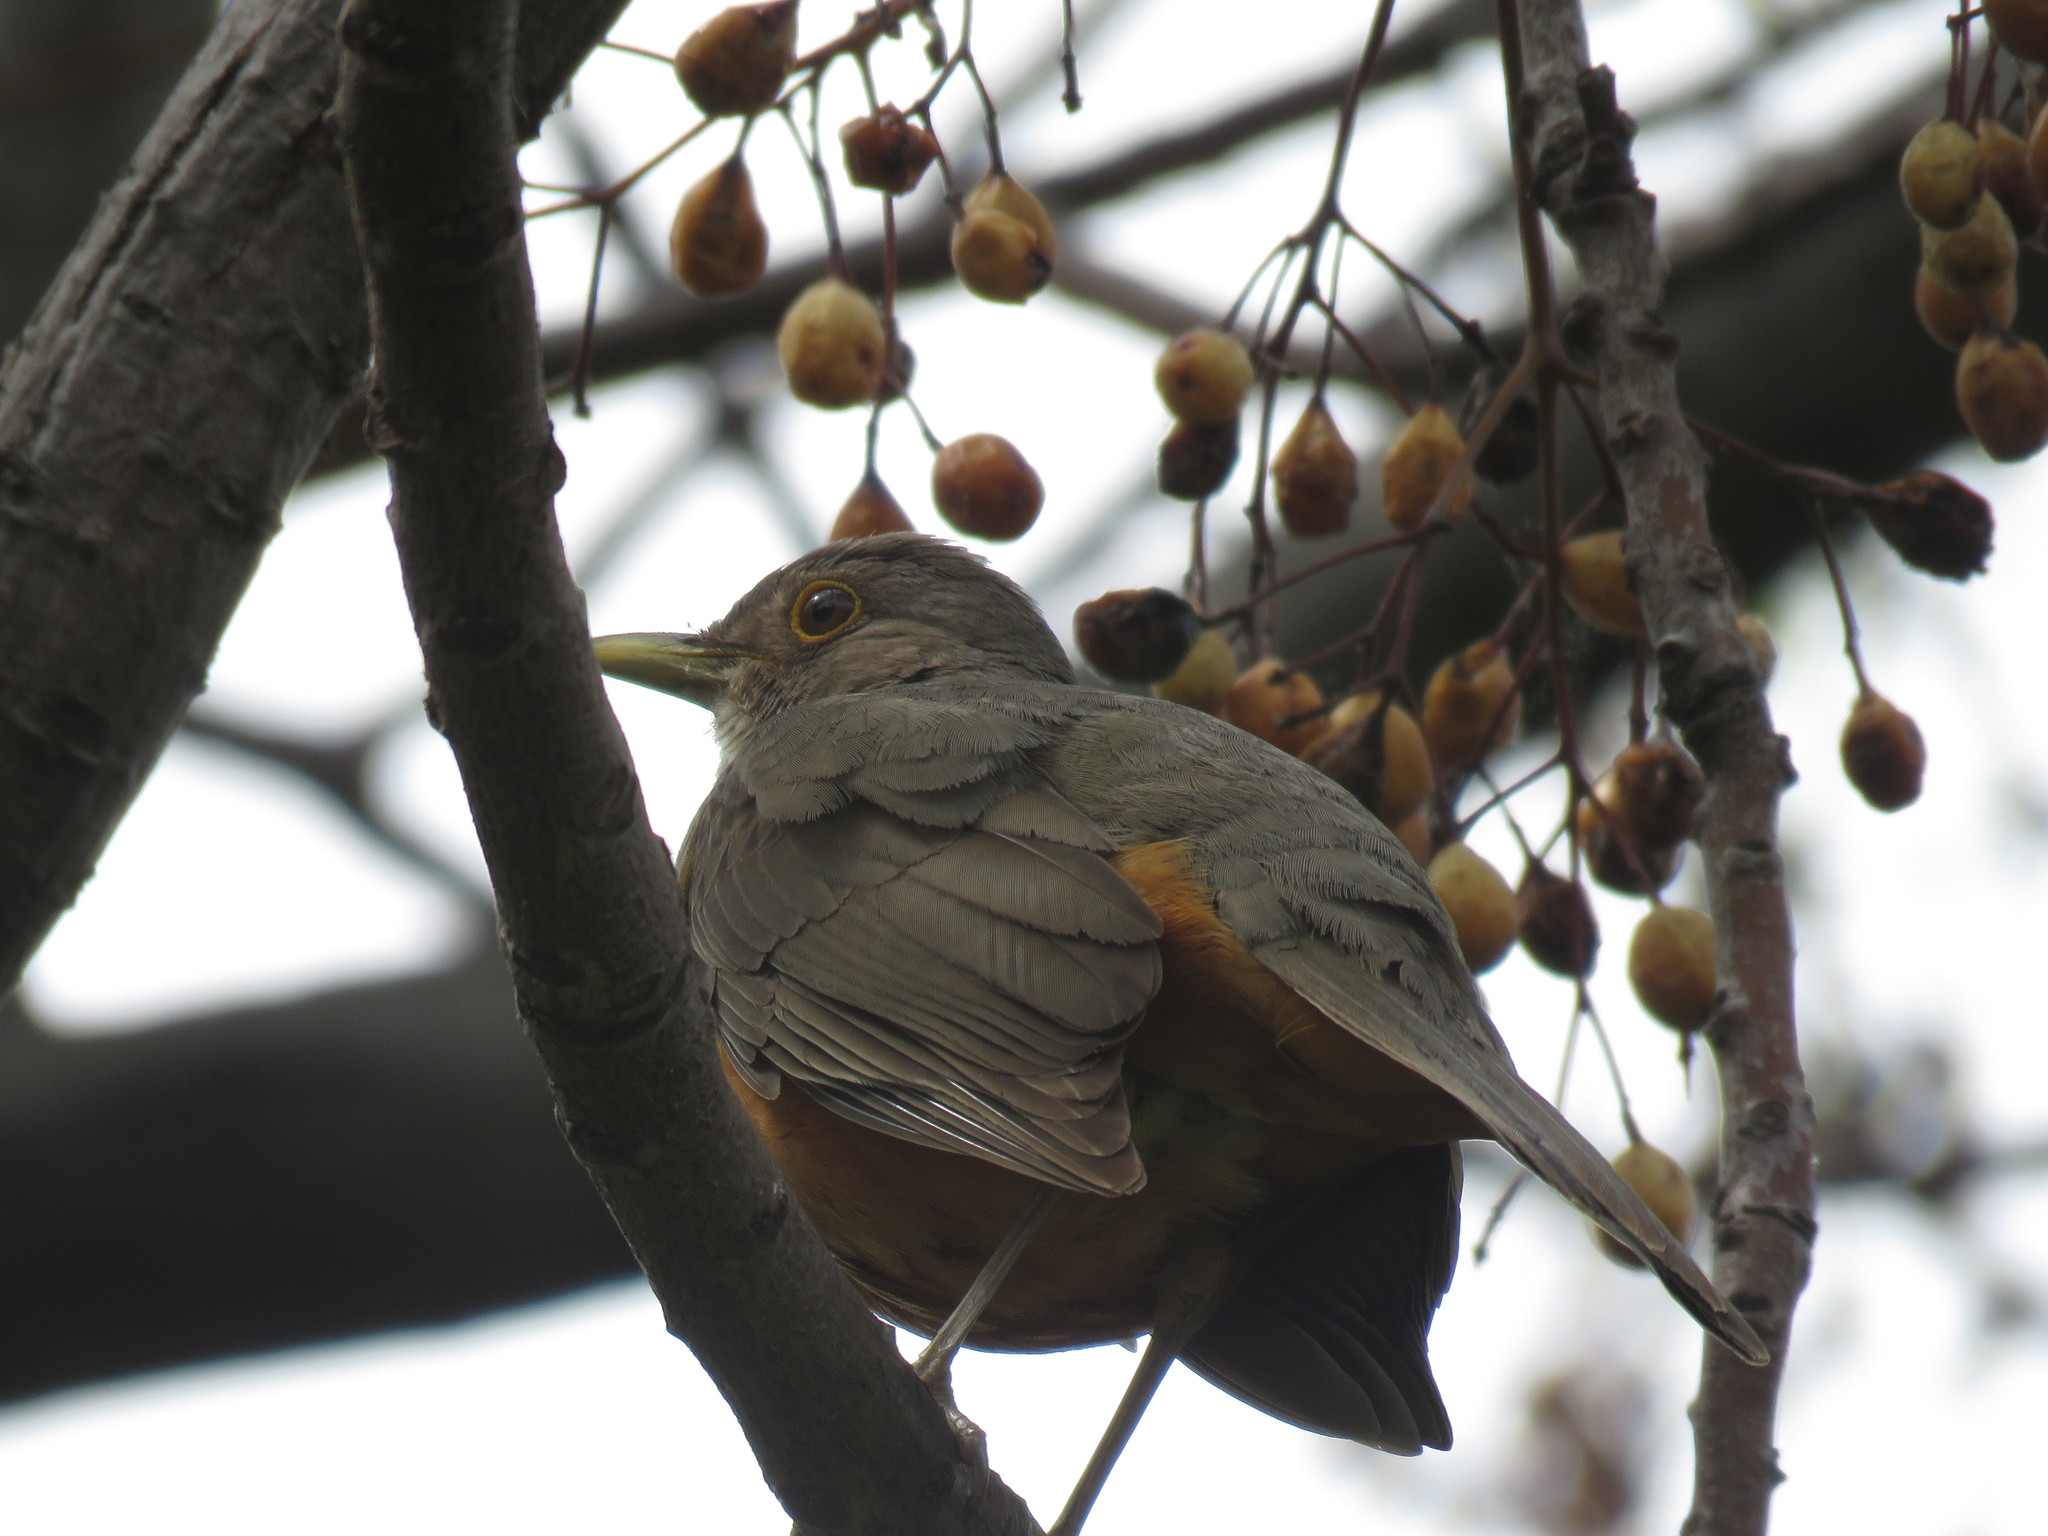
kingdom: Animalia
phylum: Chordata
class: Aves
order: Passeriformes
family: Turdidae
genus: Turdus
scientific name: Turdus rufiventris
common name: Rufous-bellied thrush
